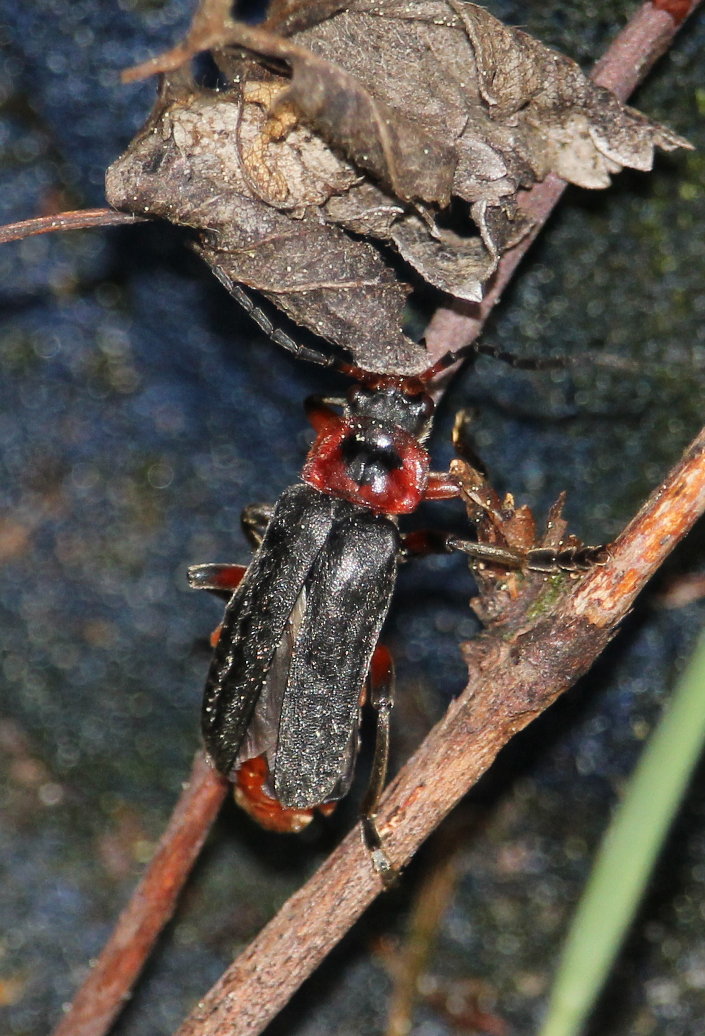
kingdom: Animalia
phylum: Arthropoda
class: Insecta
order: Coleoptera
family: Cantharidae
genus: Cantharis
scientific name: Cantharis rustica
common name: Soldier beetle
